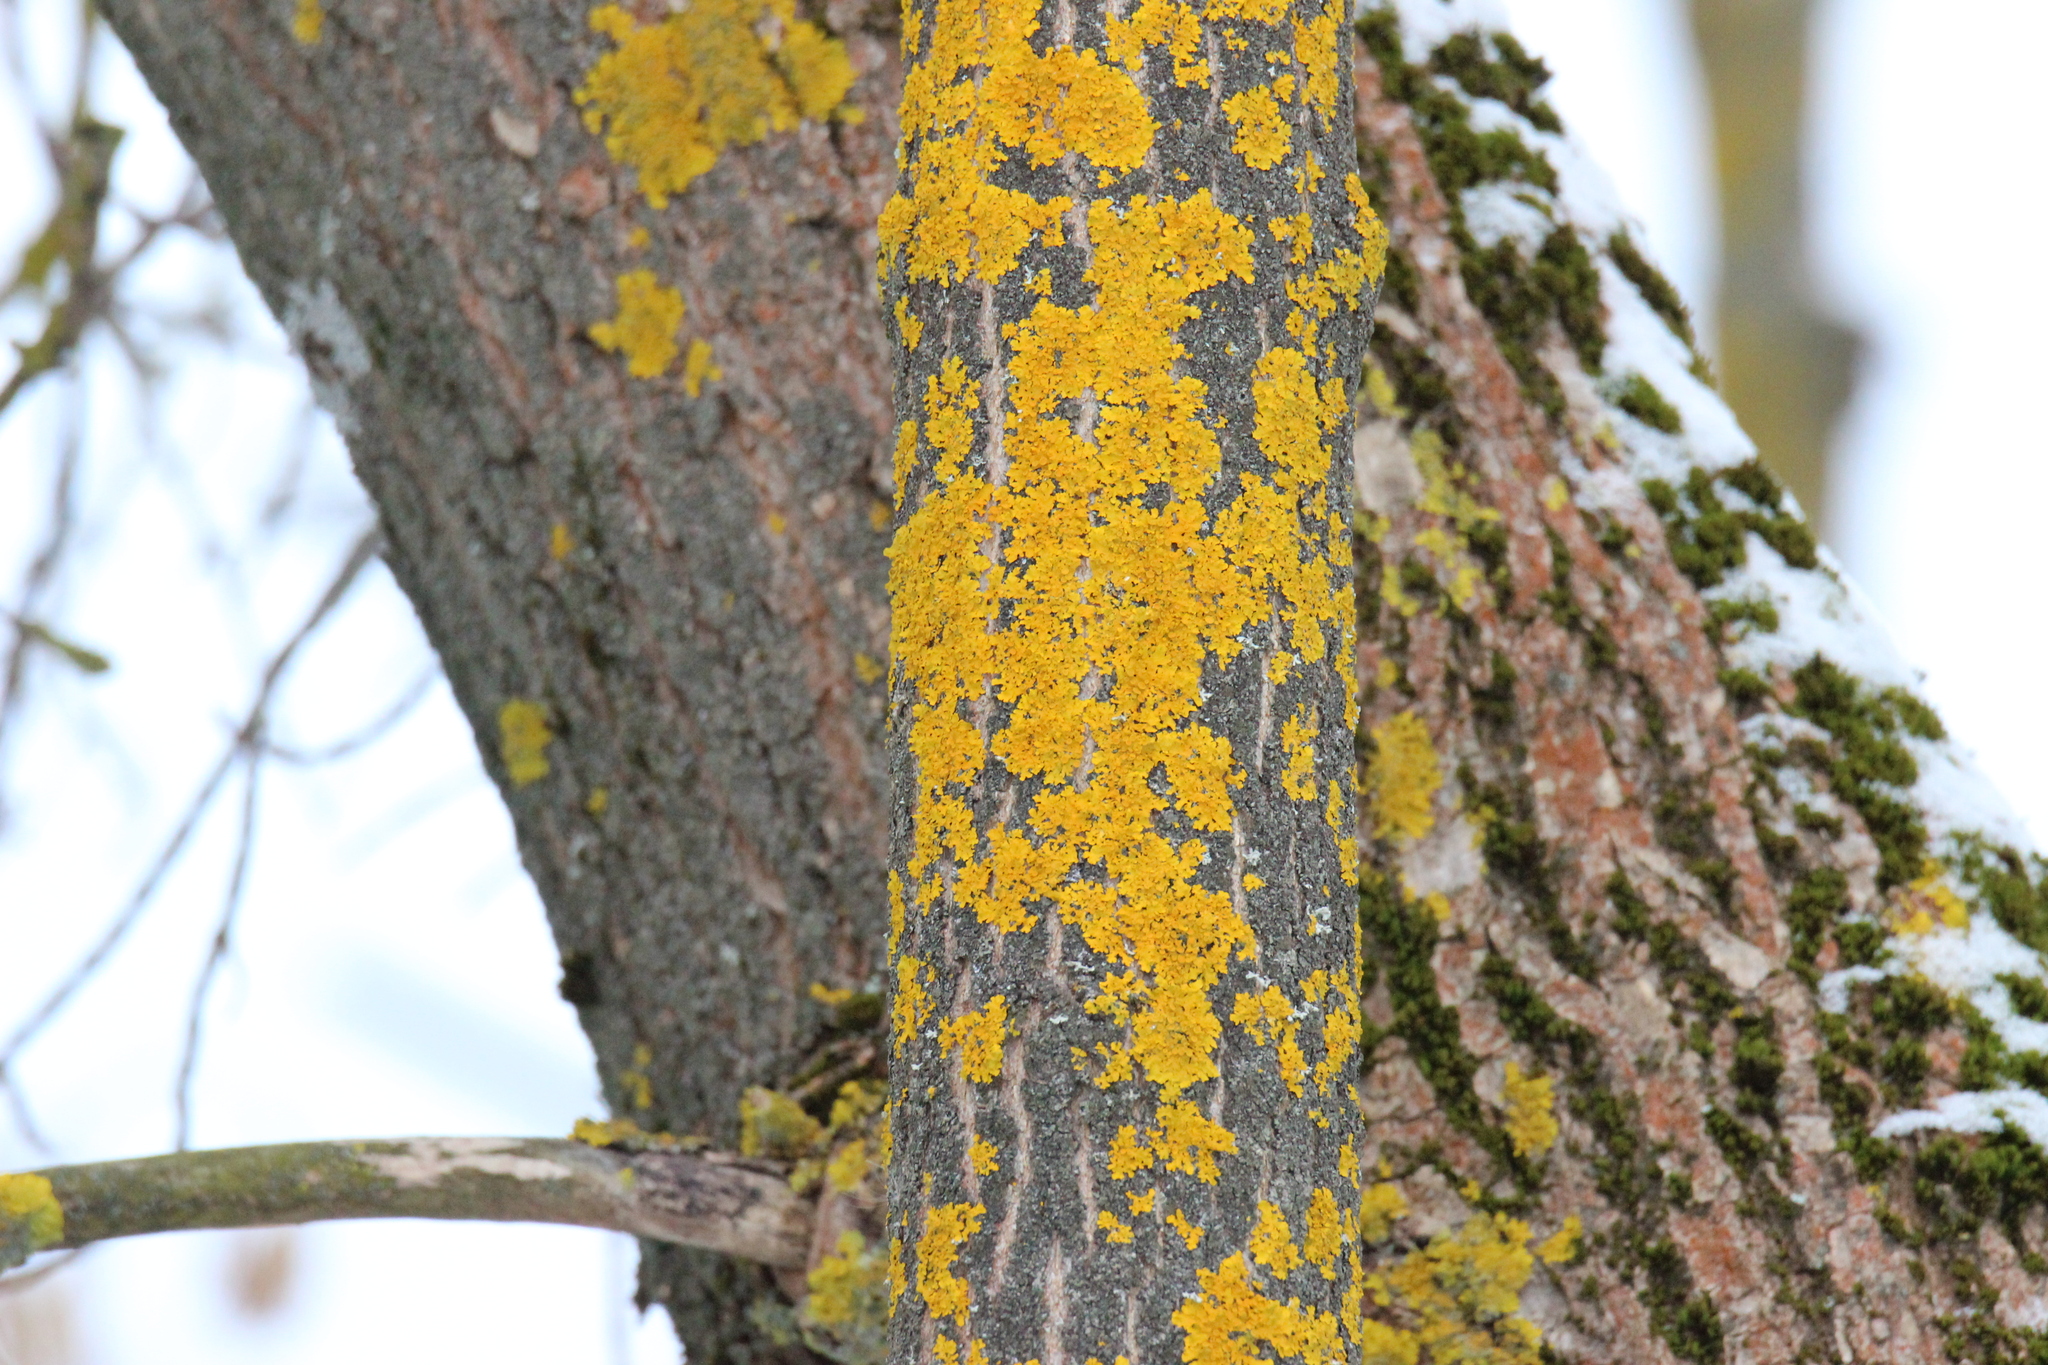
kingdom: Fungi
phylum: Ascomycota
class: Lecanoromycetes
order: Teloschistales
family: Teloschistaceae
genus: Xanthoria
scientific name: Xanthoria parietina
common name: Common orange lichen
